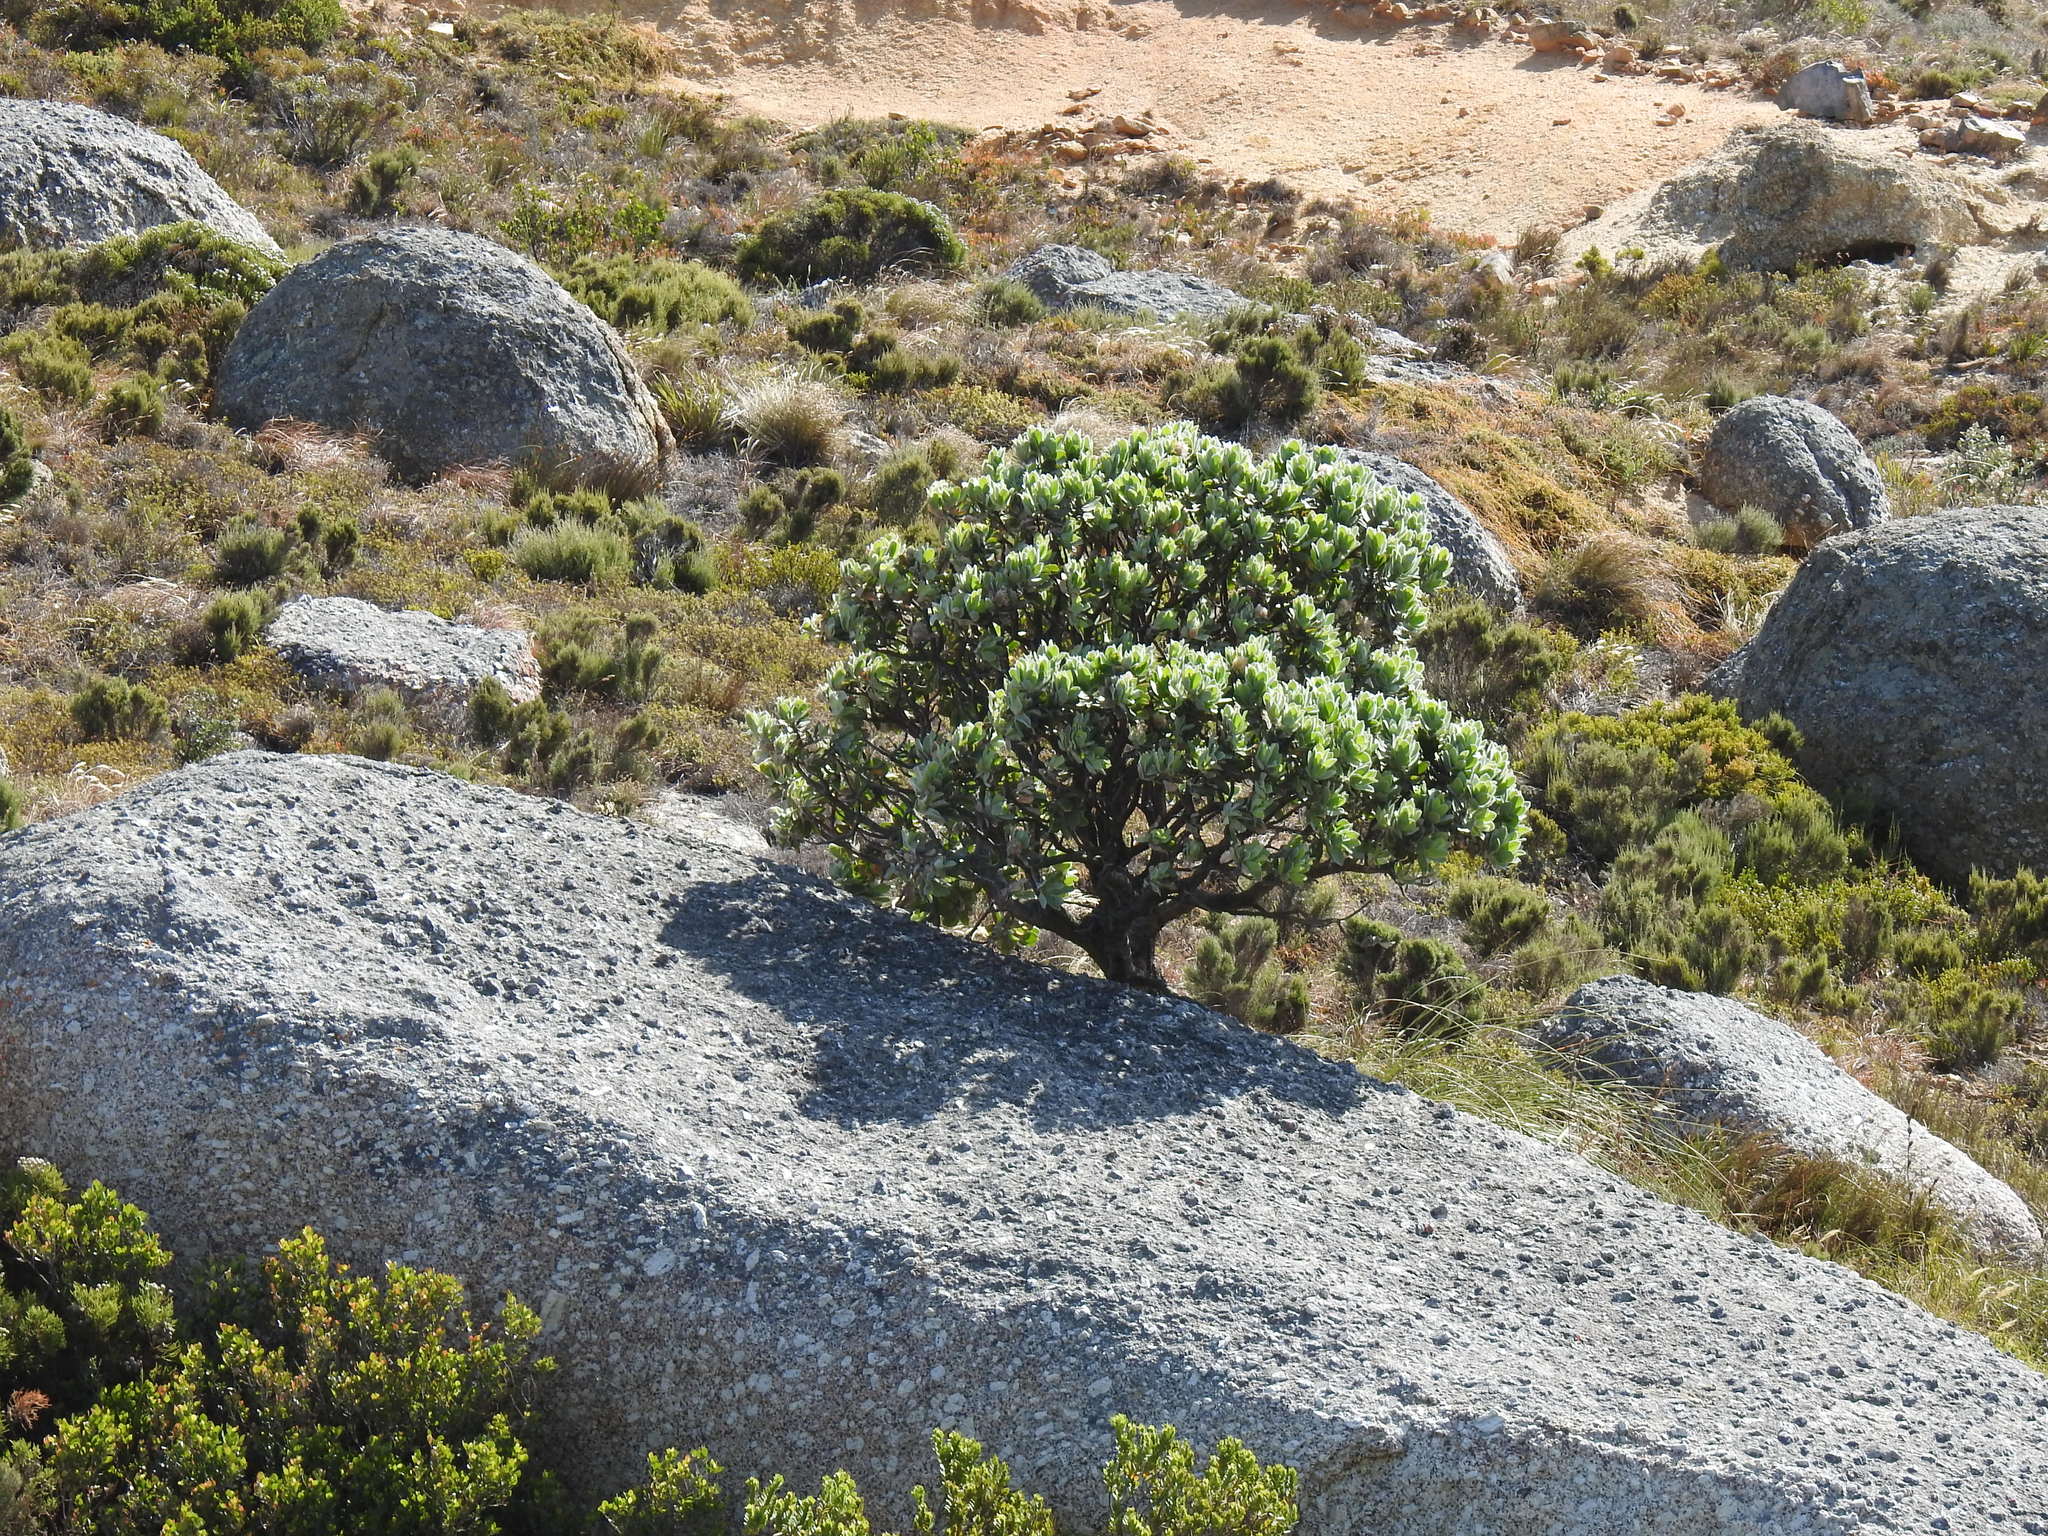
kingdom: Plantae
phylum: Tracheophyta
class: Magnoliopsida
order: Proteales
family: Proteaceae
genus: Leucospermum
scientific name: Leucospermum conocarpodendron
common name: Tree pincushion
